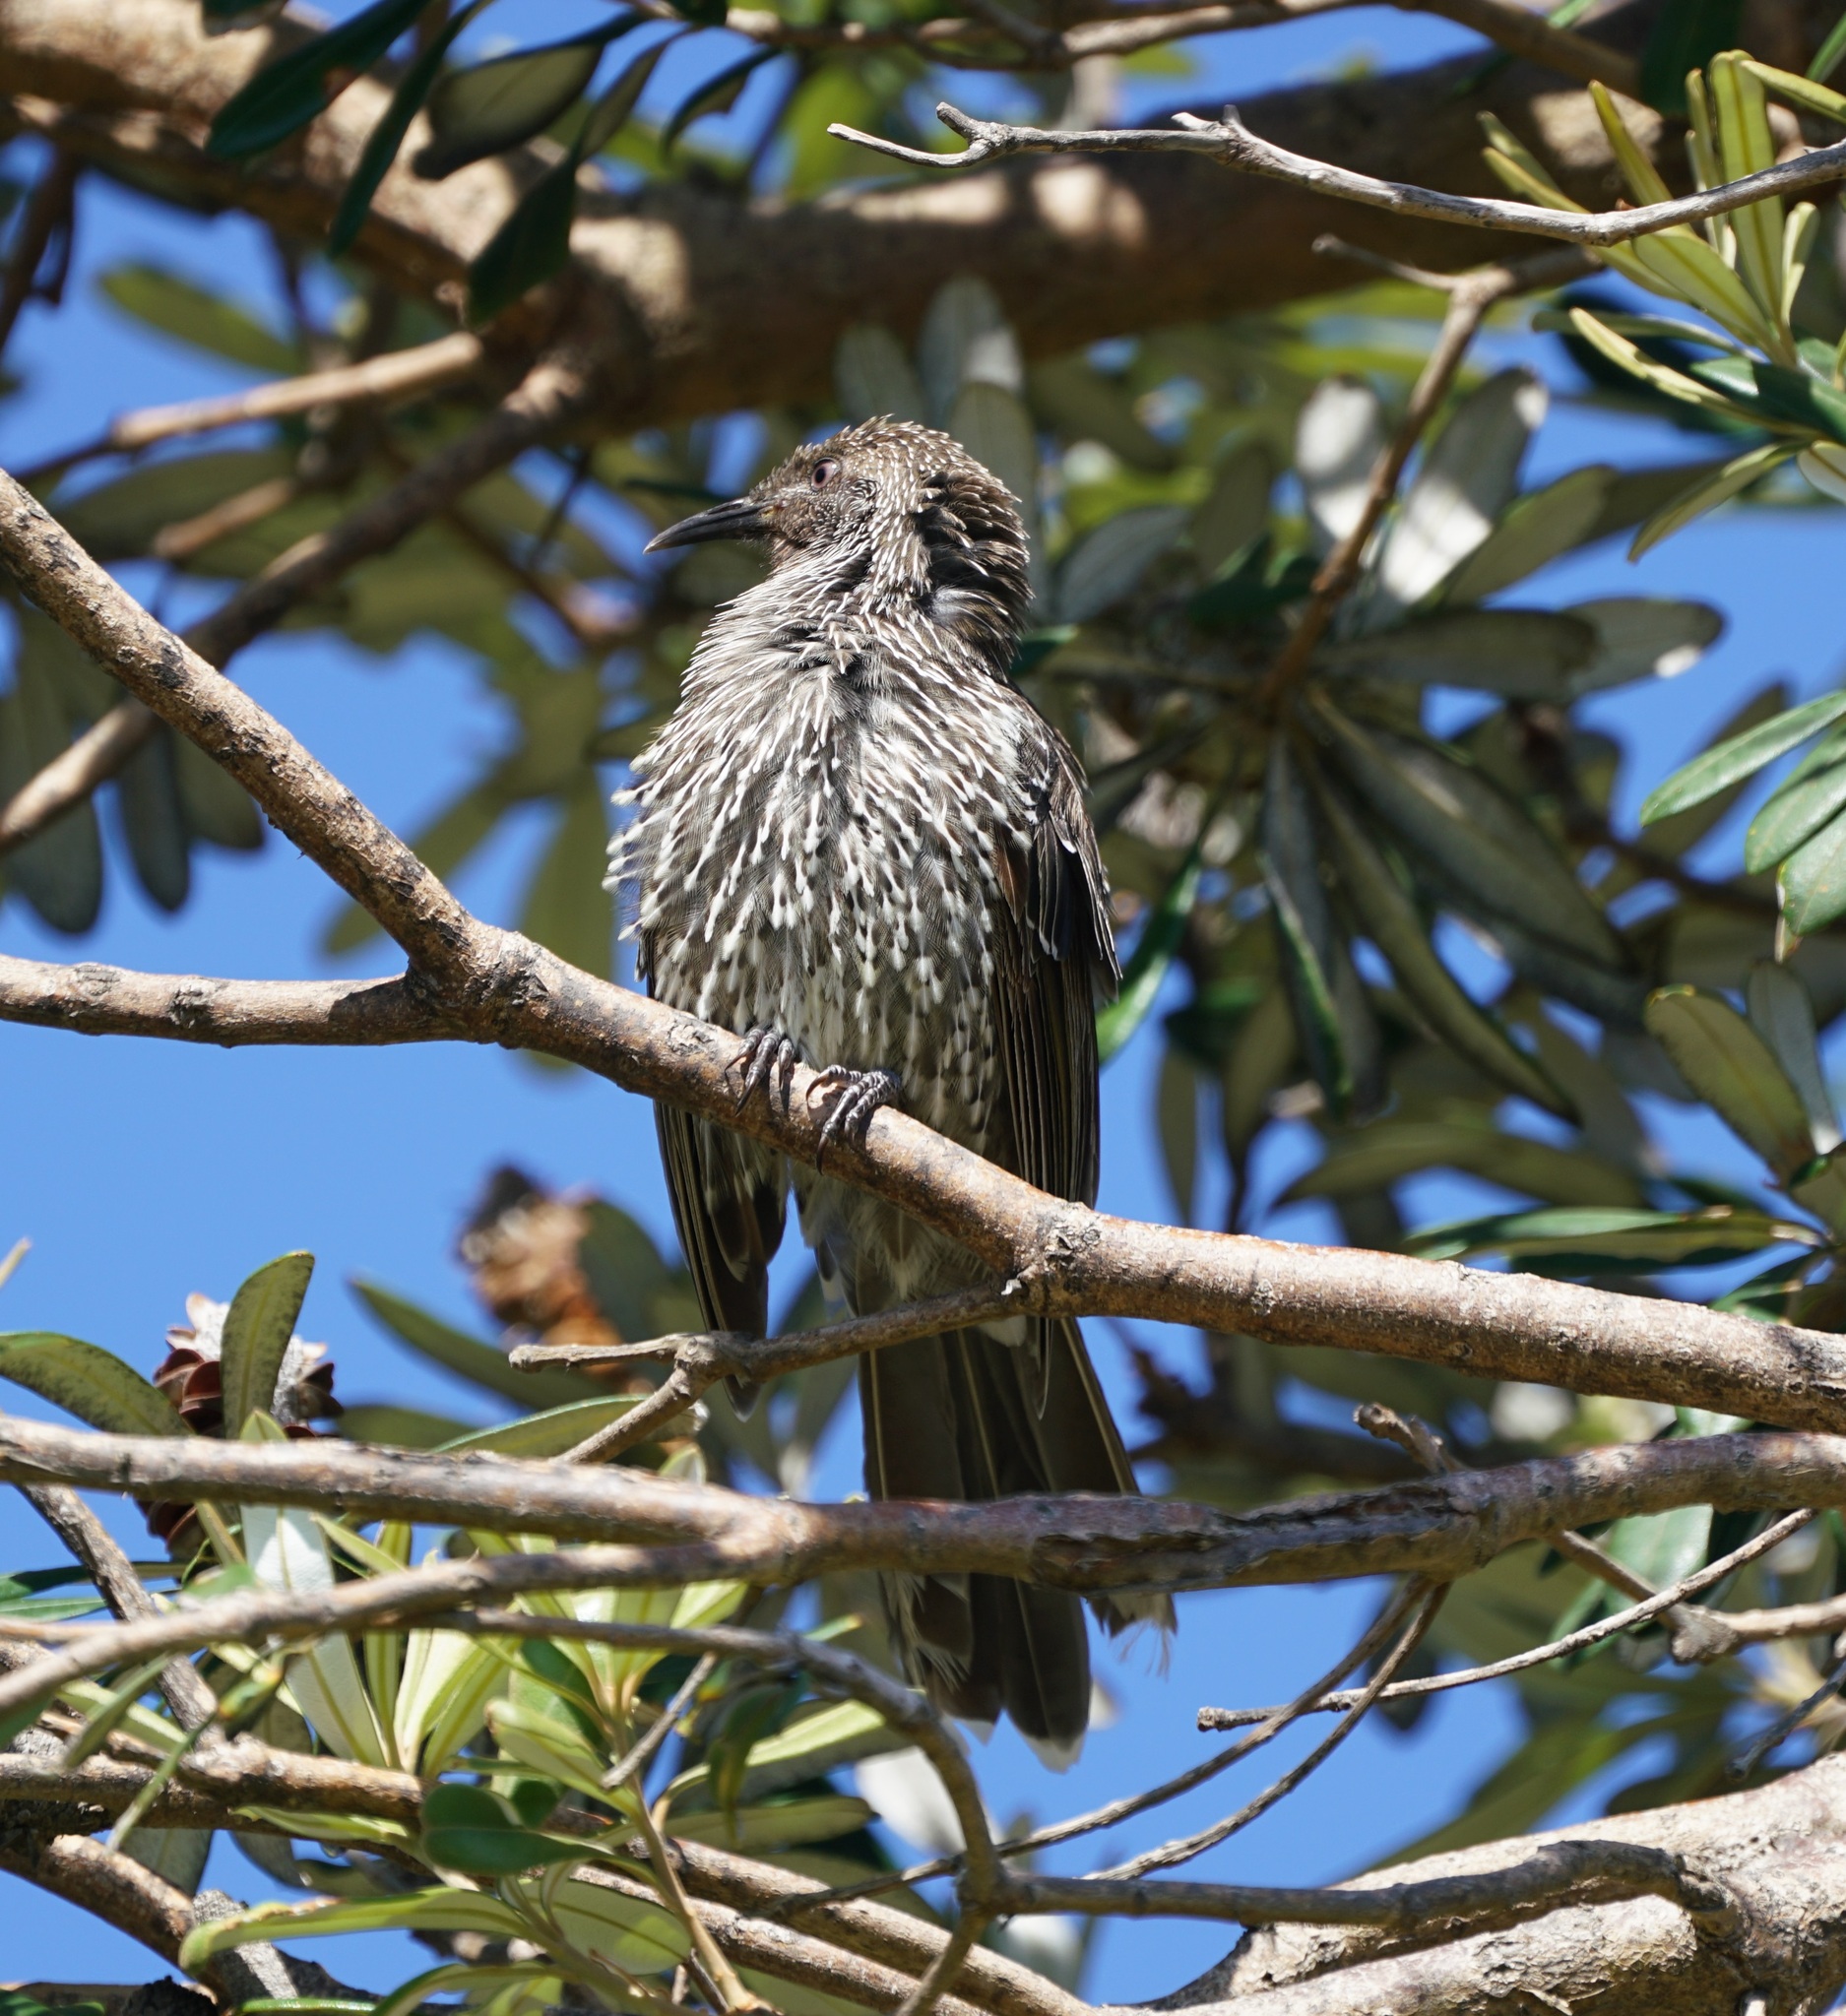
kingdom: Animalia
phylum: Chordata
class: Aves
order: Passeriformes
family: Meliphagidae
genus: Anthochaera
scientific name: Anthochaera chrysoptera
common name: Little wattlebird
